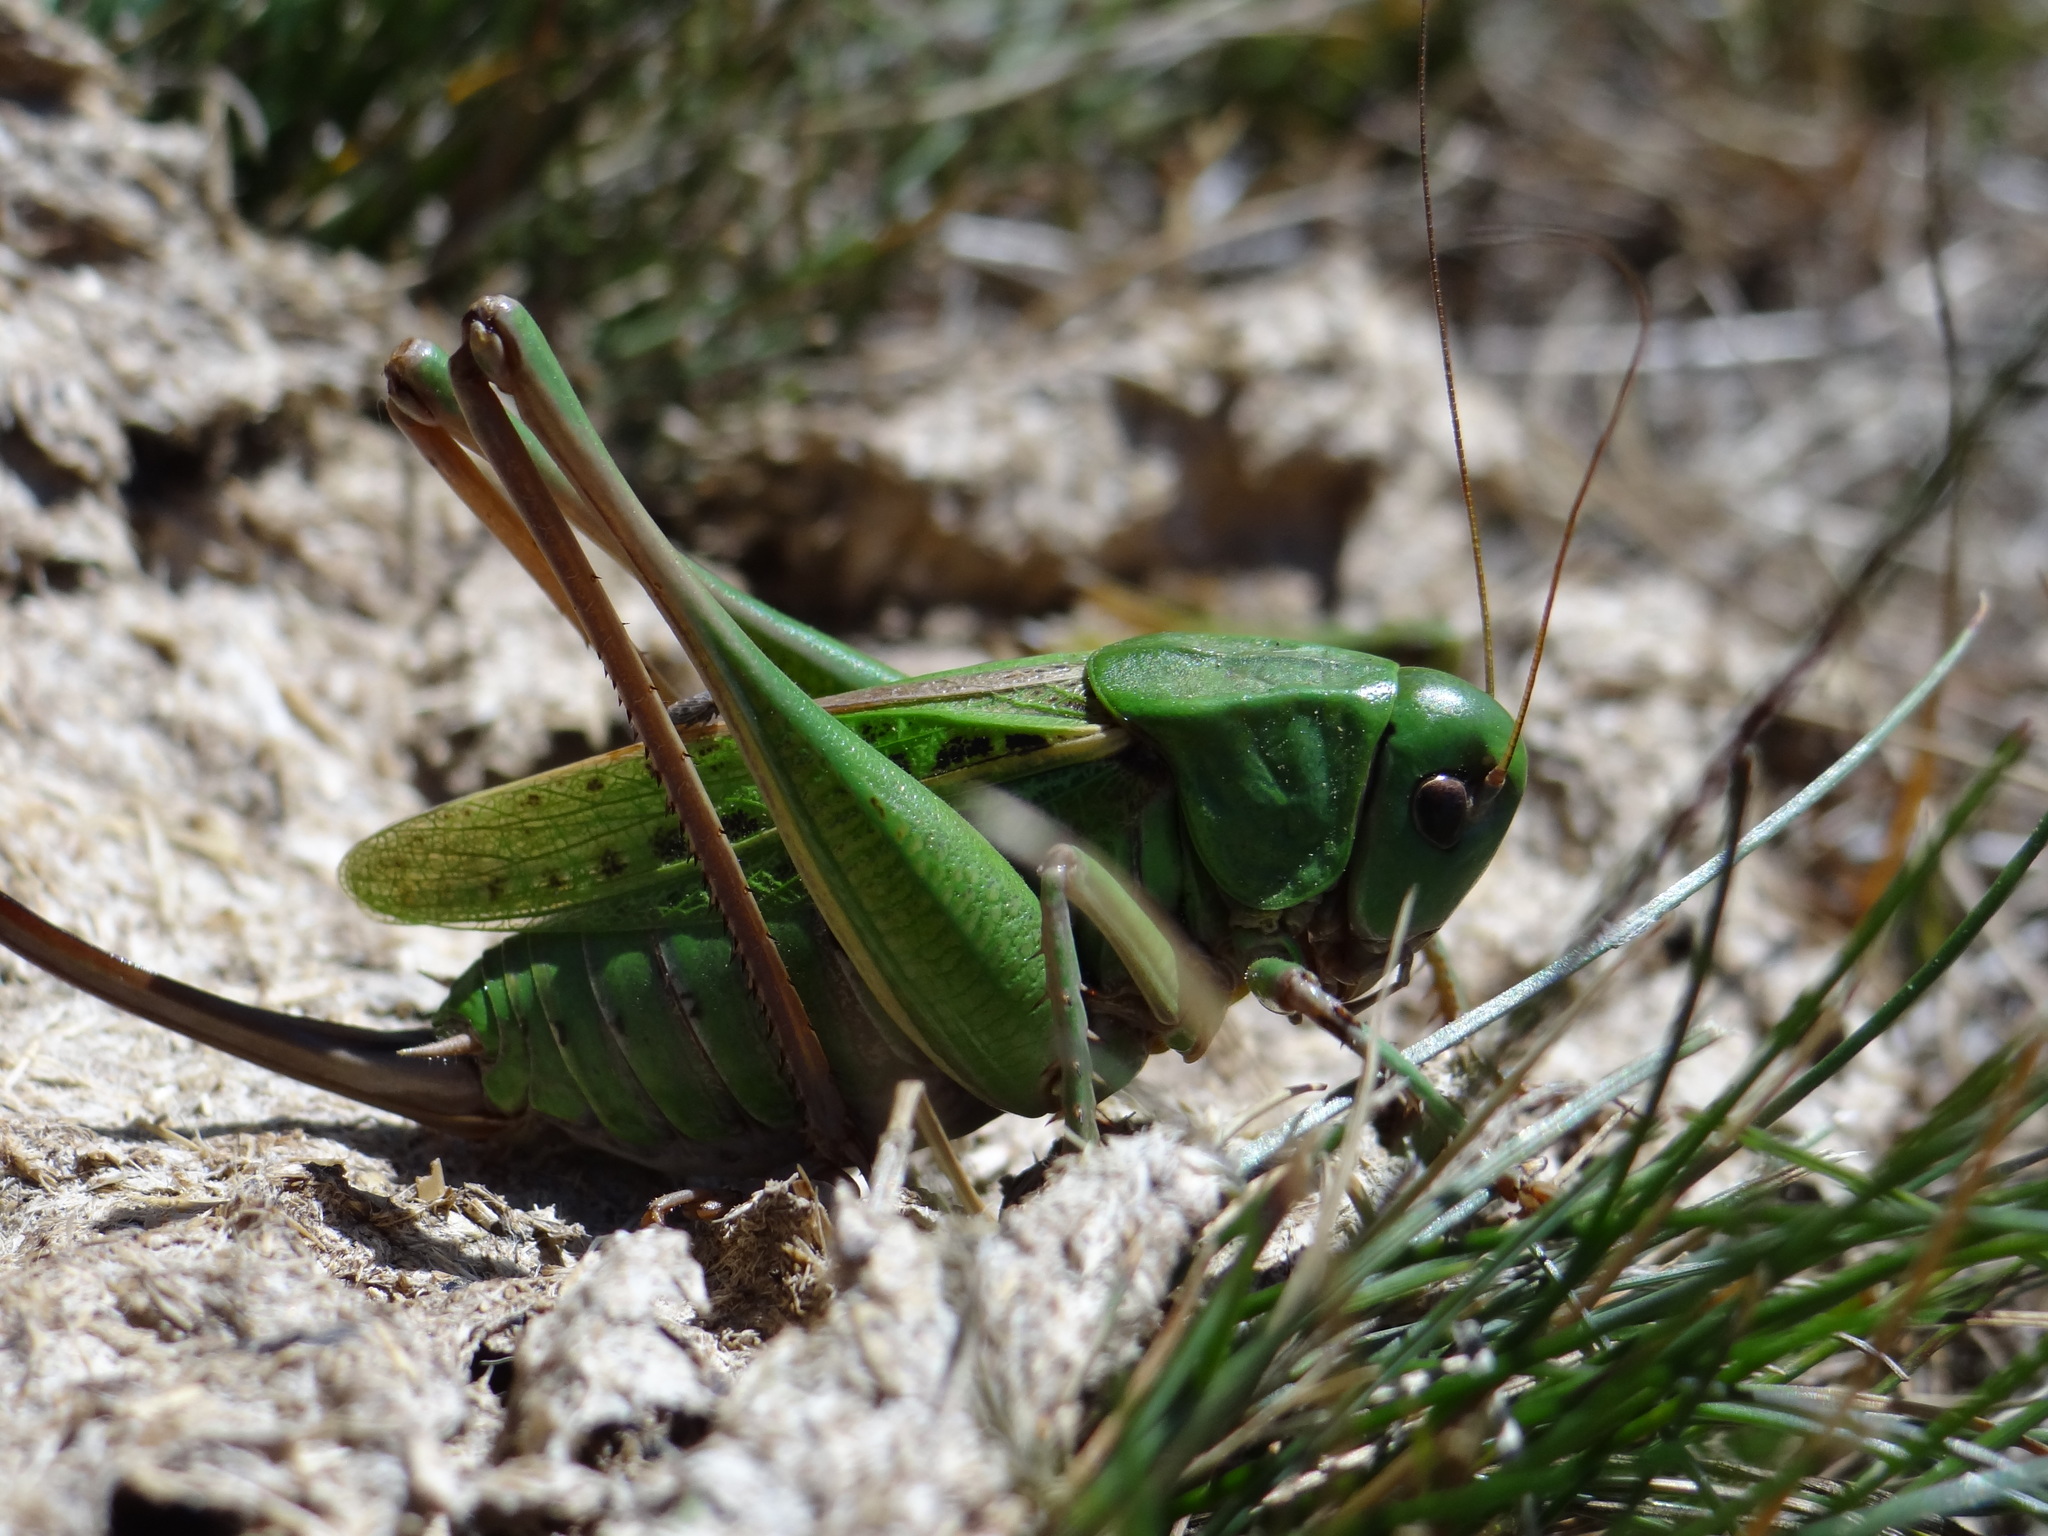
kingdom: Animalia
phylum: Arthropoda
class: Insecta
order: Orthoptera
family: Tettigoniidae
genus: Decticus
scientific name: Decticus verrucivorus
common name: Wart-biter
